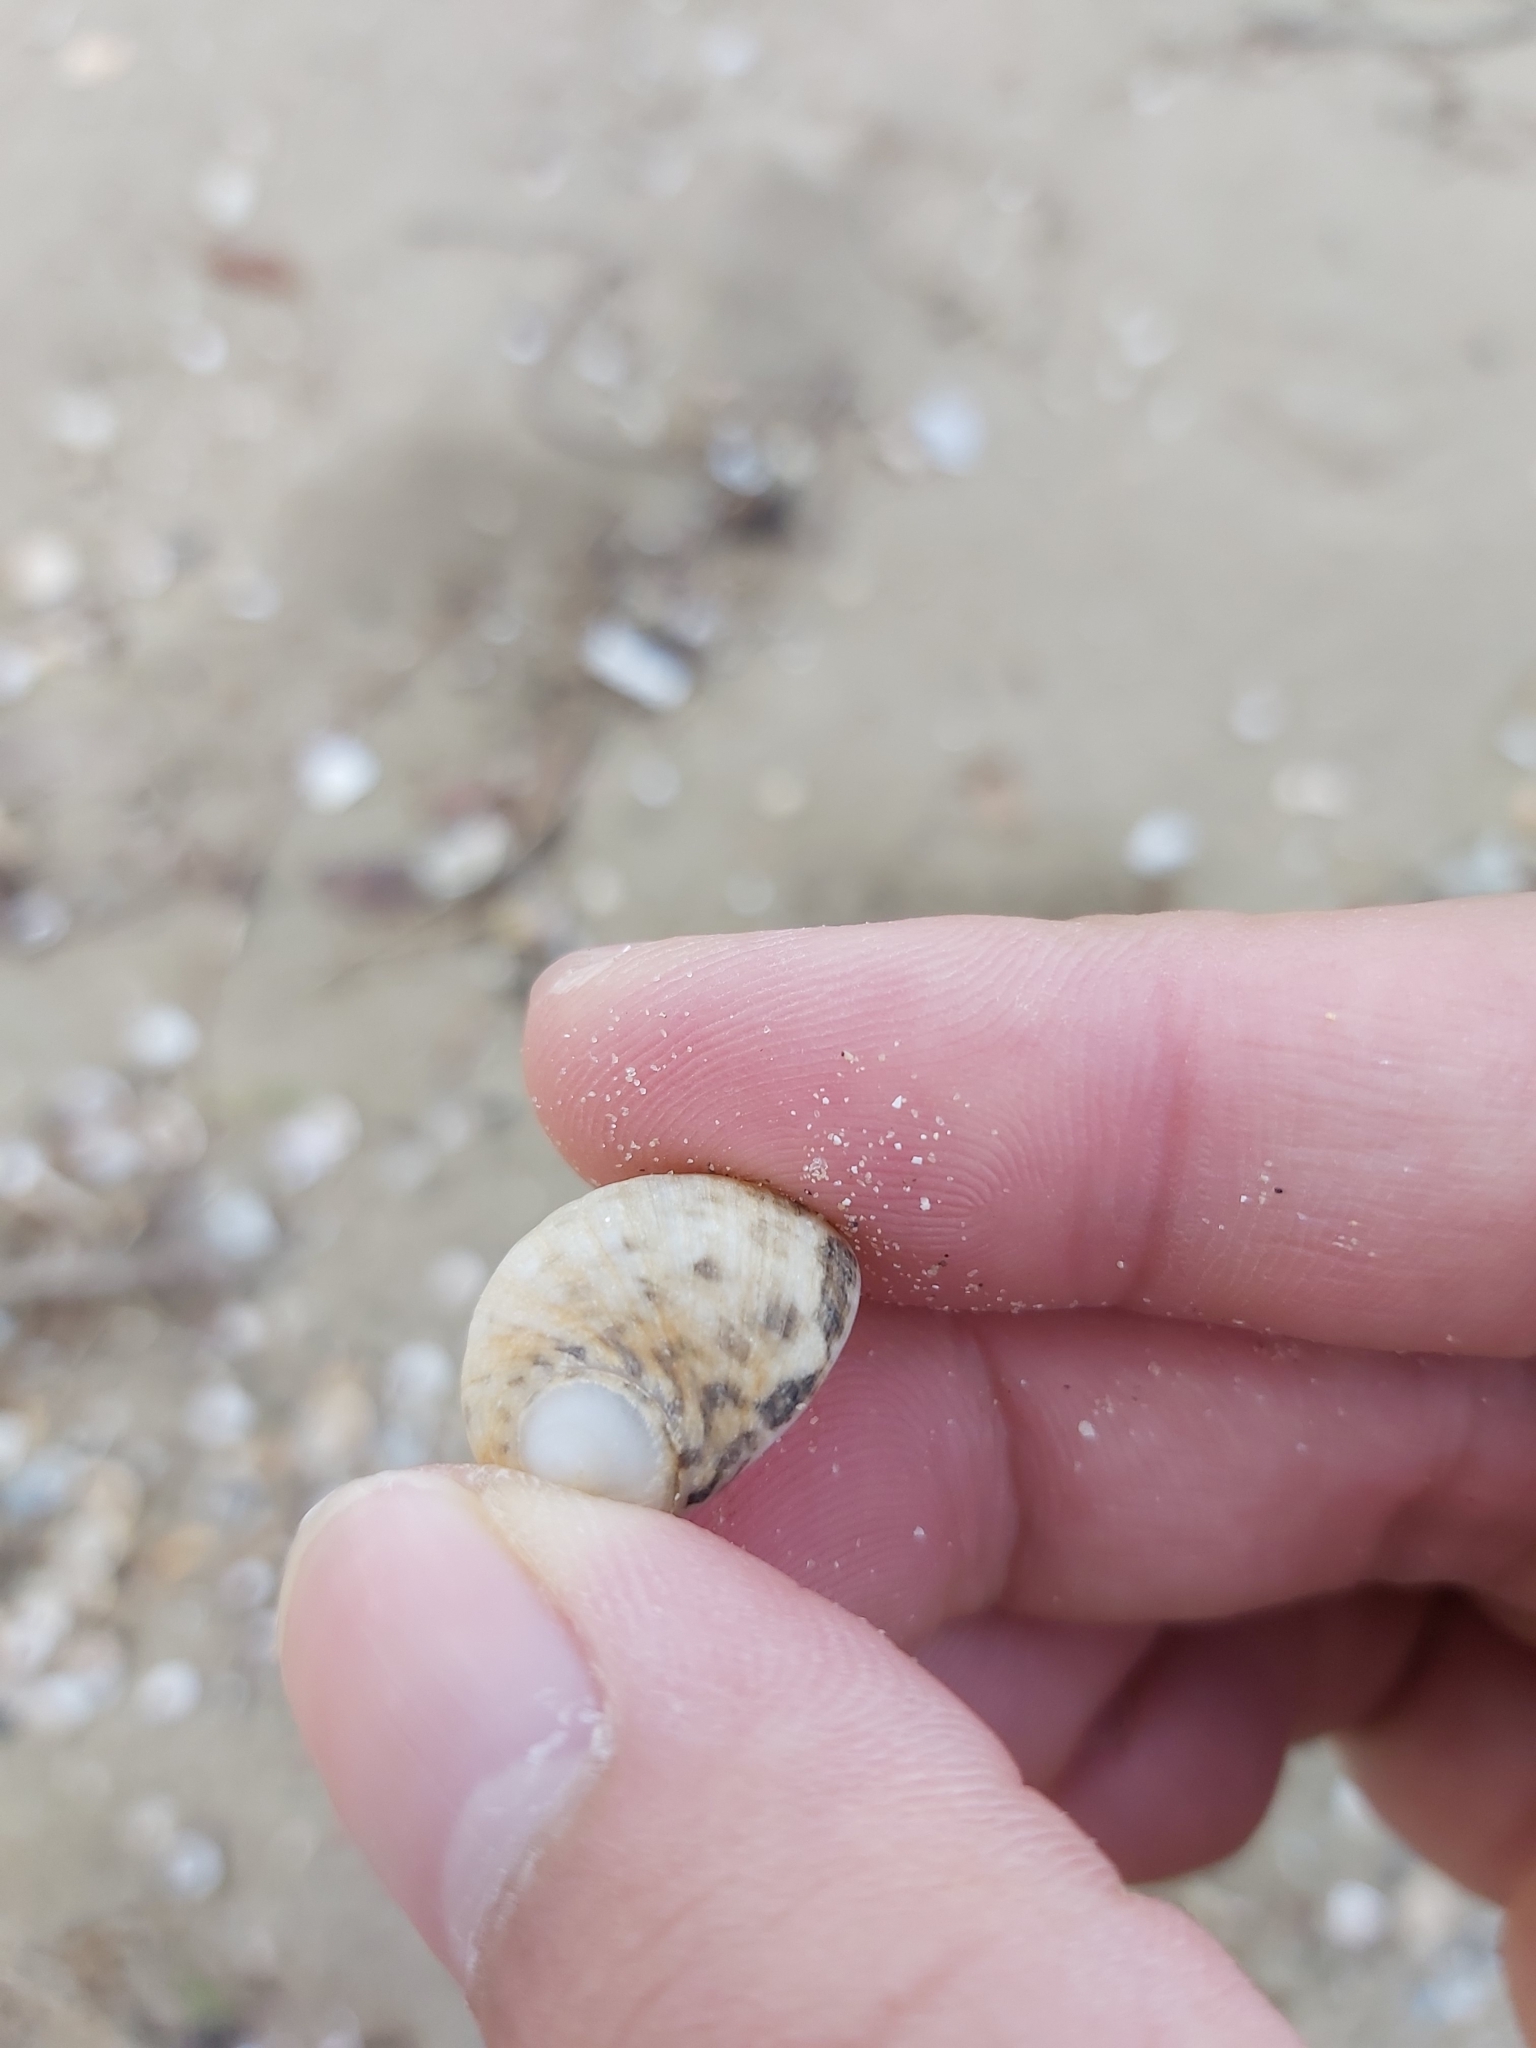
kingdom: Animalia
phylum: Mollusca
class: Gastropoda
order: Cycloneritida
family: Neritidae
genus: Nerita
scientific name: Nerita chamaeleon
